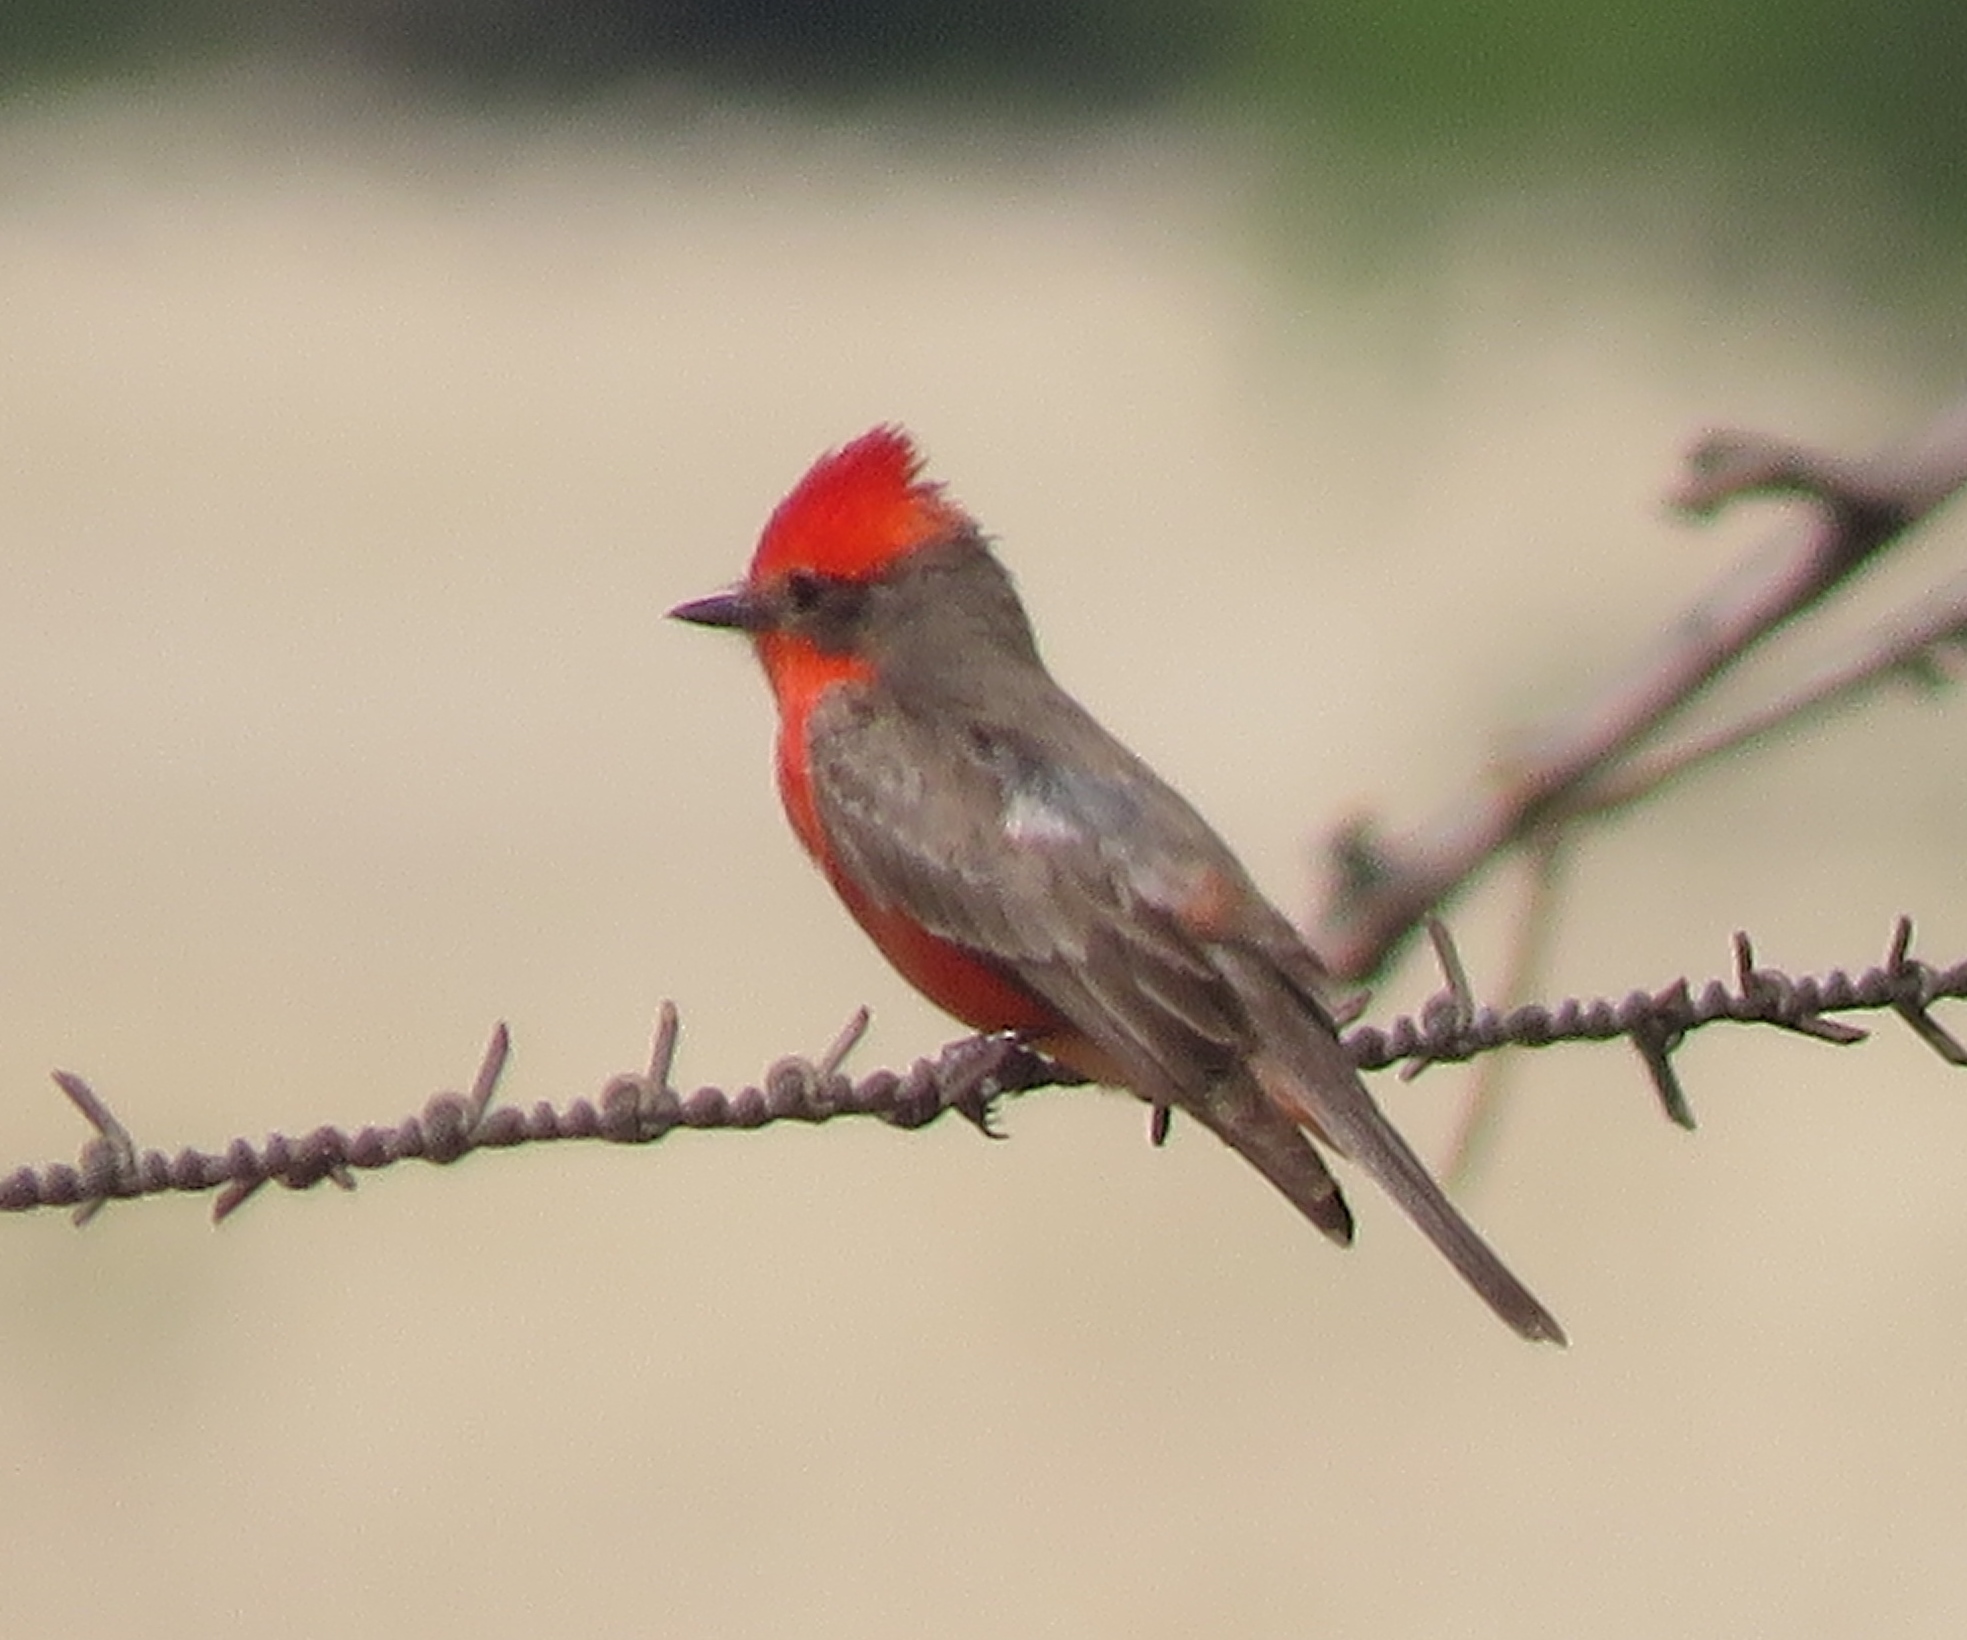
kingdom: Animalia
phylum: Chordata
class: Aves
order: Passeriformes
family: Tyrannidae
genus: Pyrocephalus
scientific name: Pyrocephalus rubinus
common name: Vermilion flycatcher
